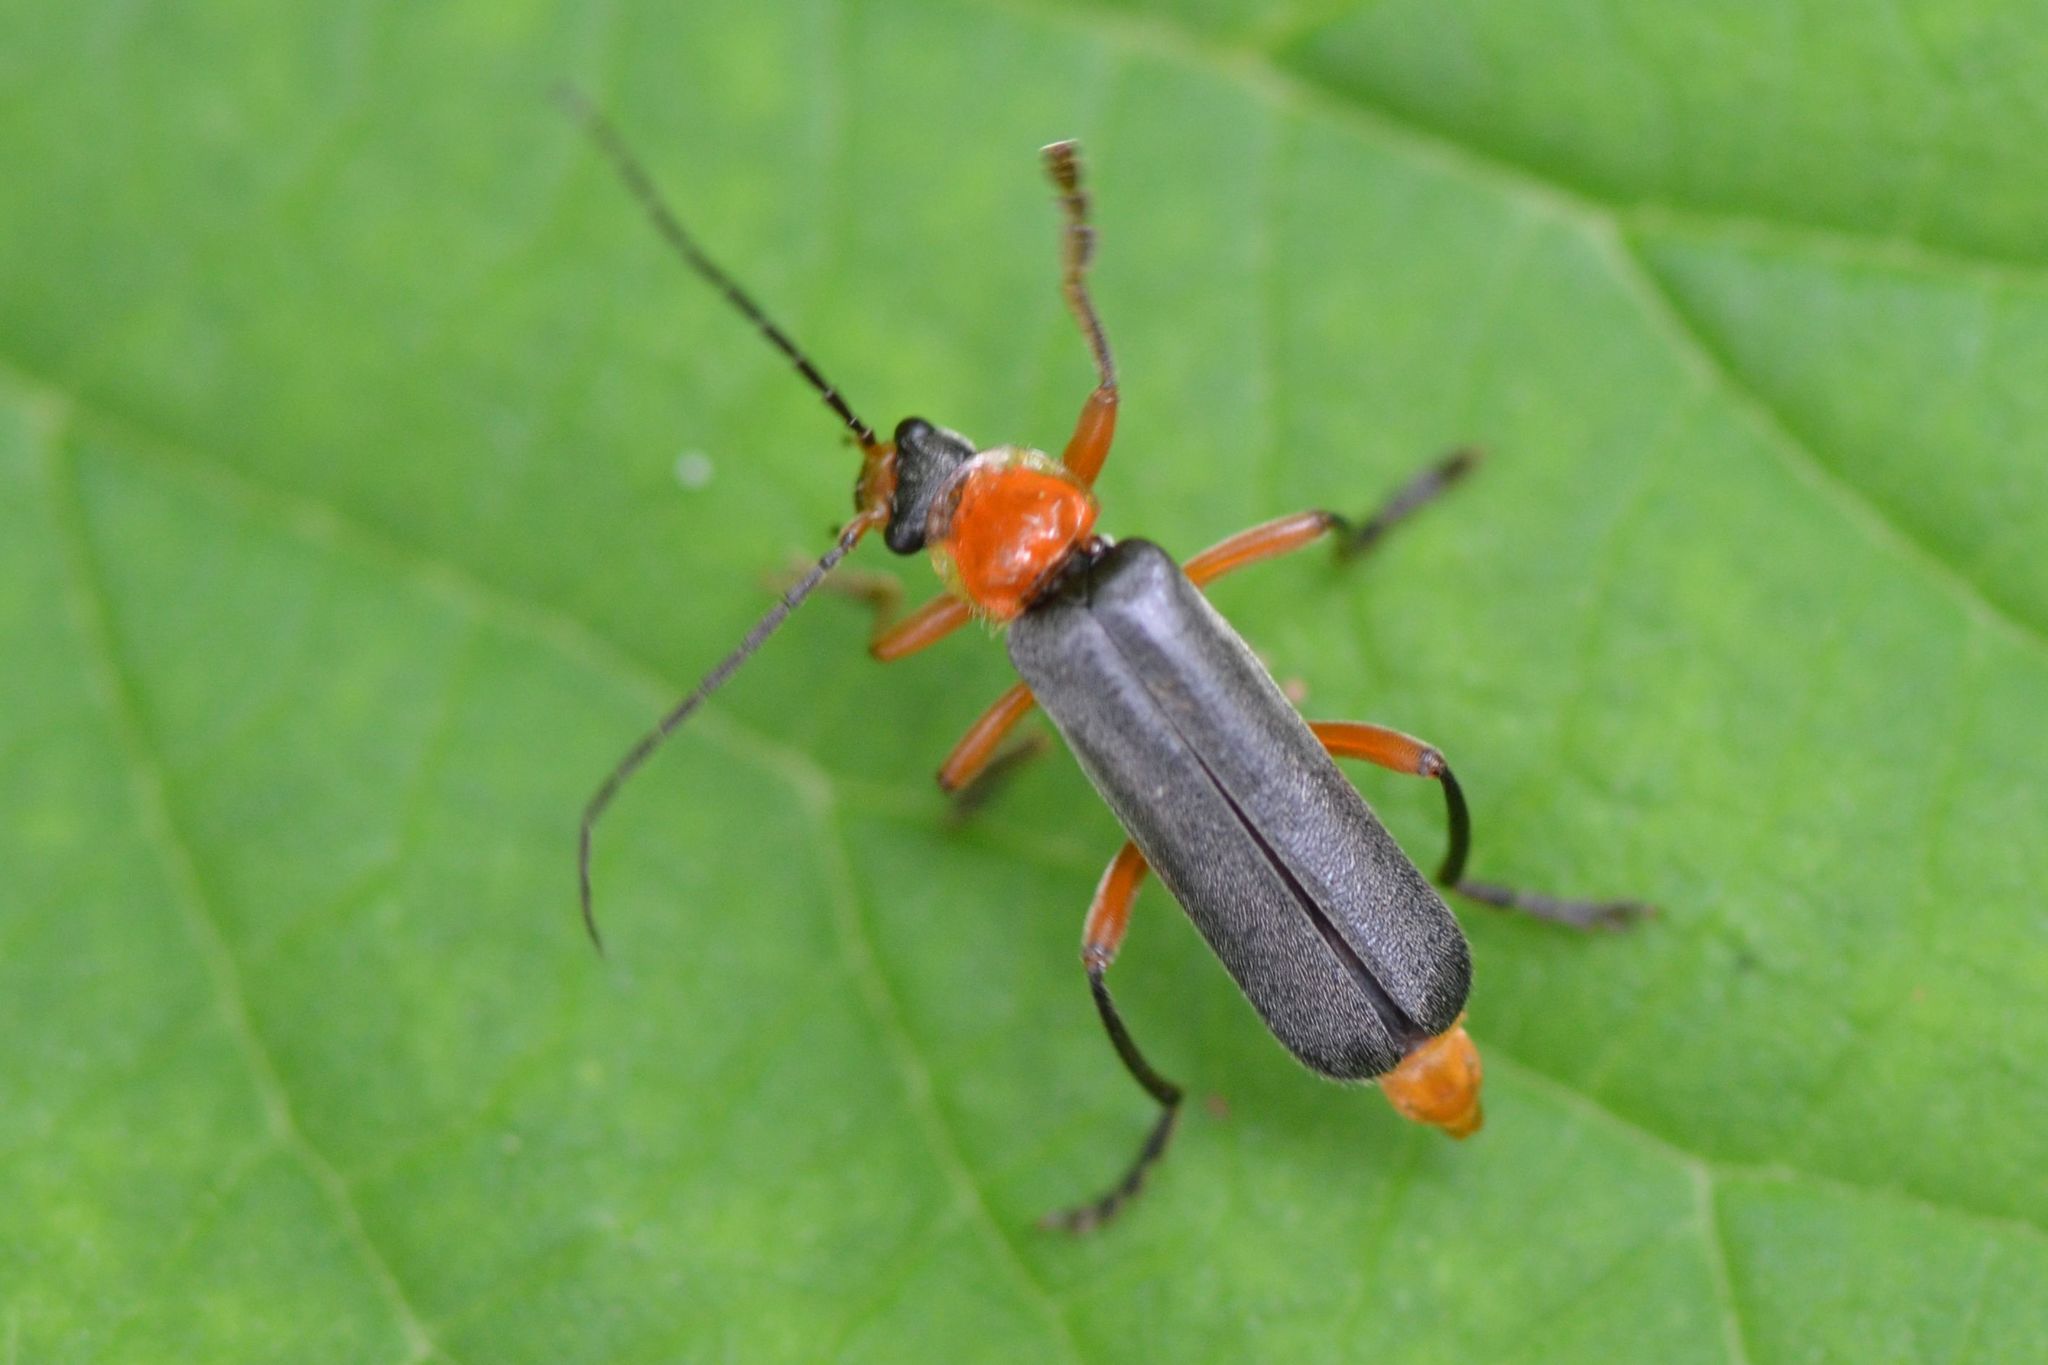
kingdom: Animalia
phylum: Arthropoda
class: Insecta
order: Coleoptera
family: Cantharidae
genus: Cantharis
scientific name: Cantharis pellucida
